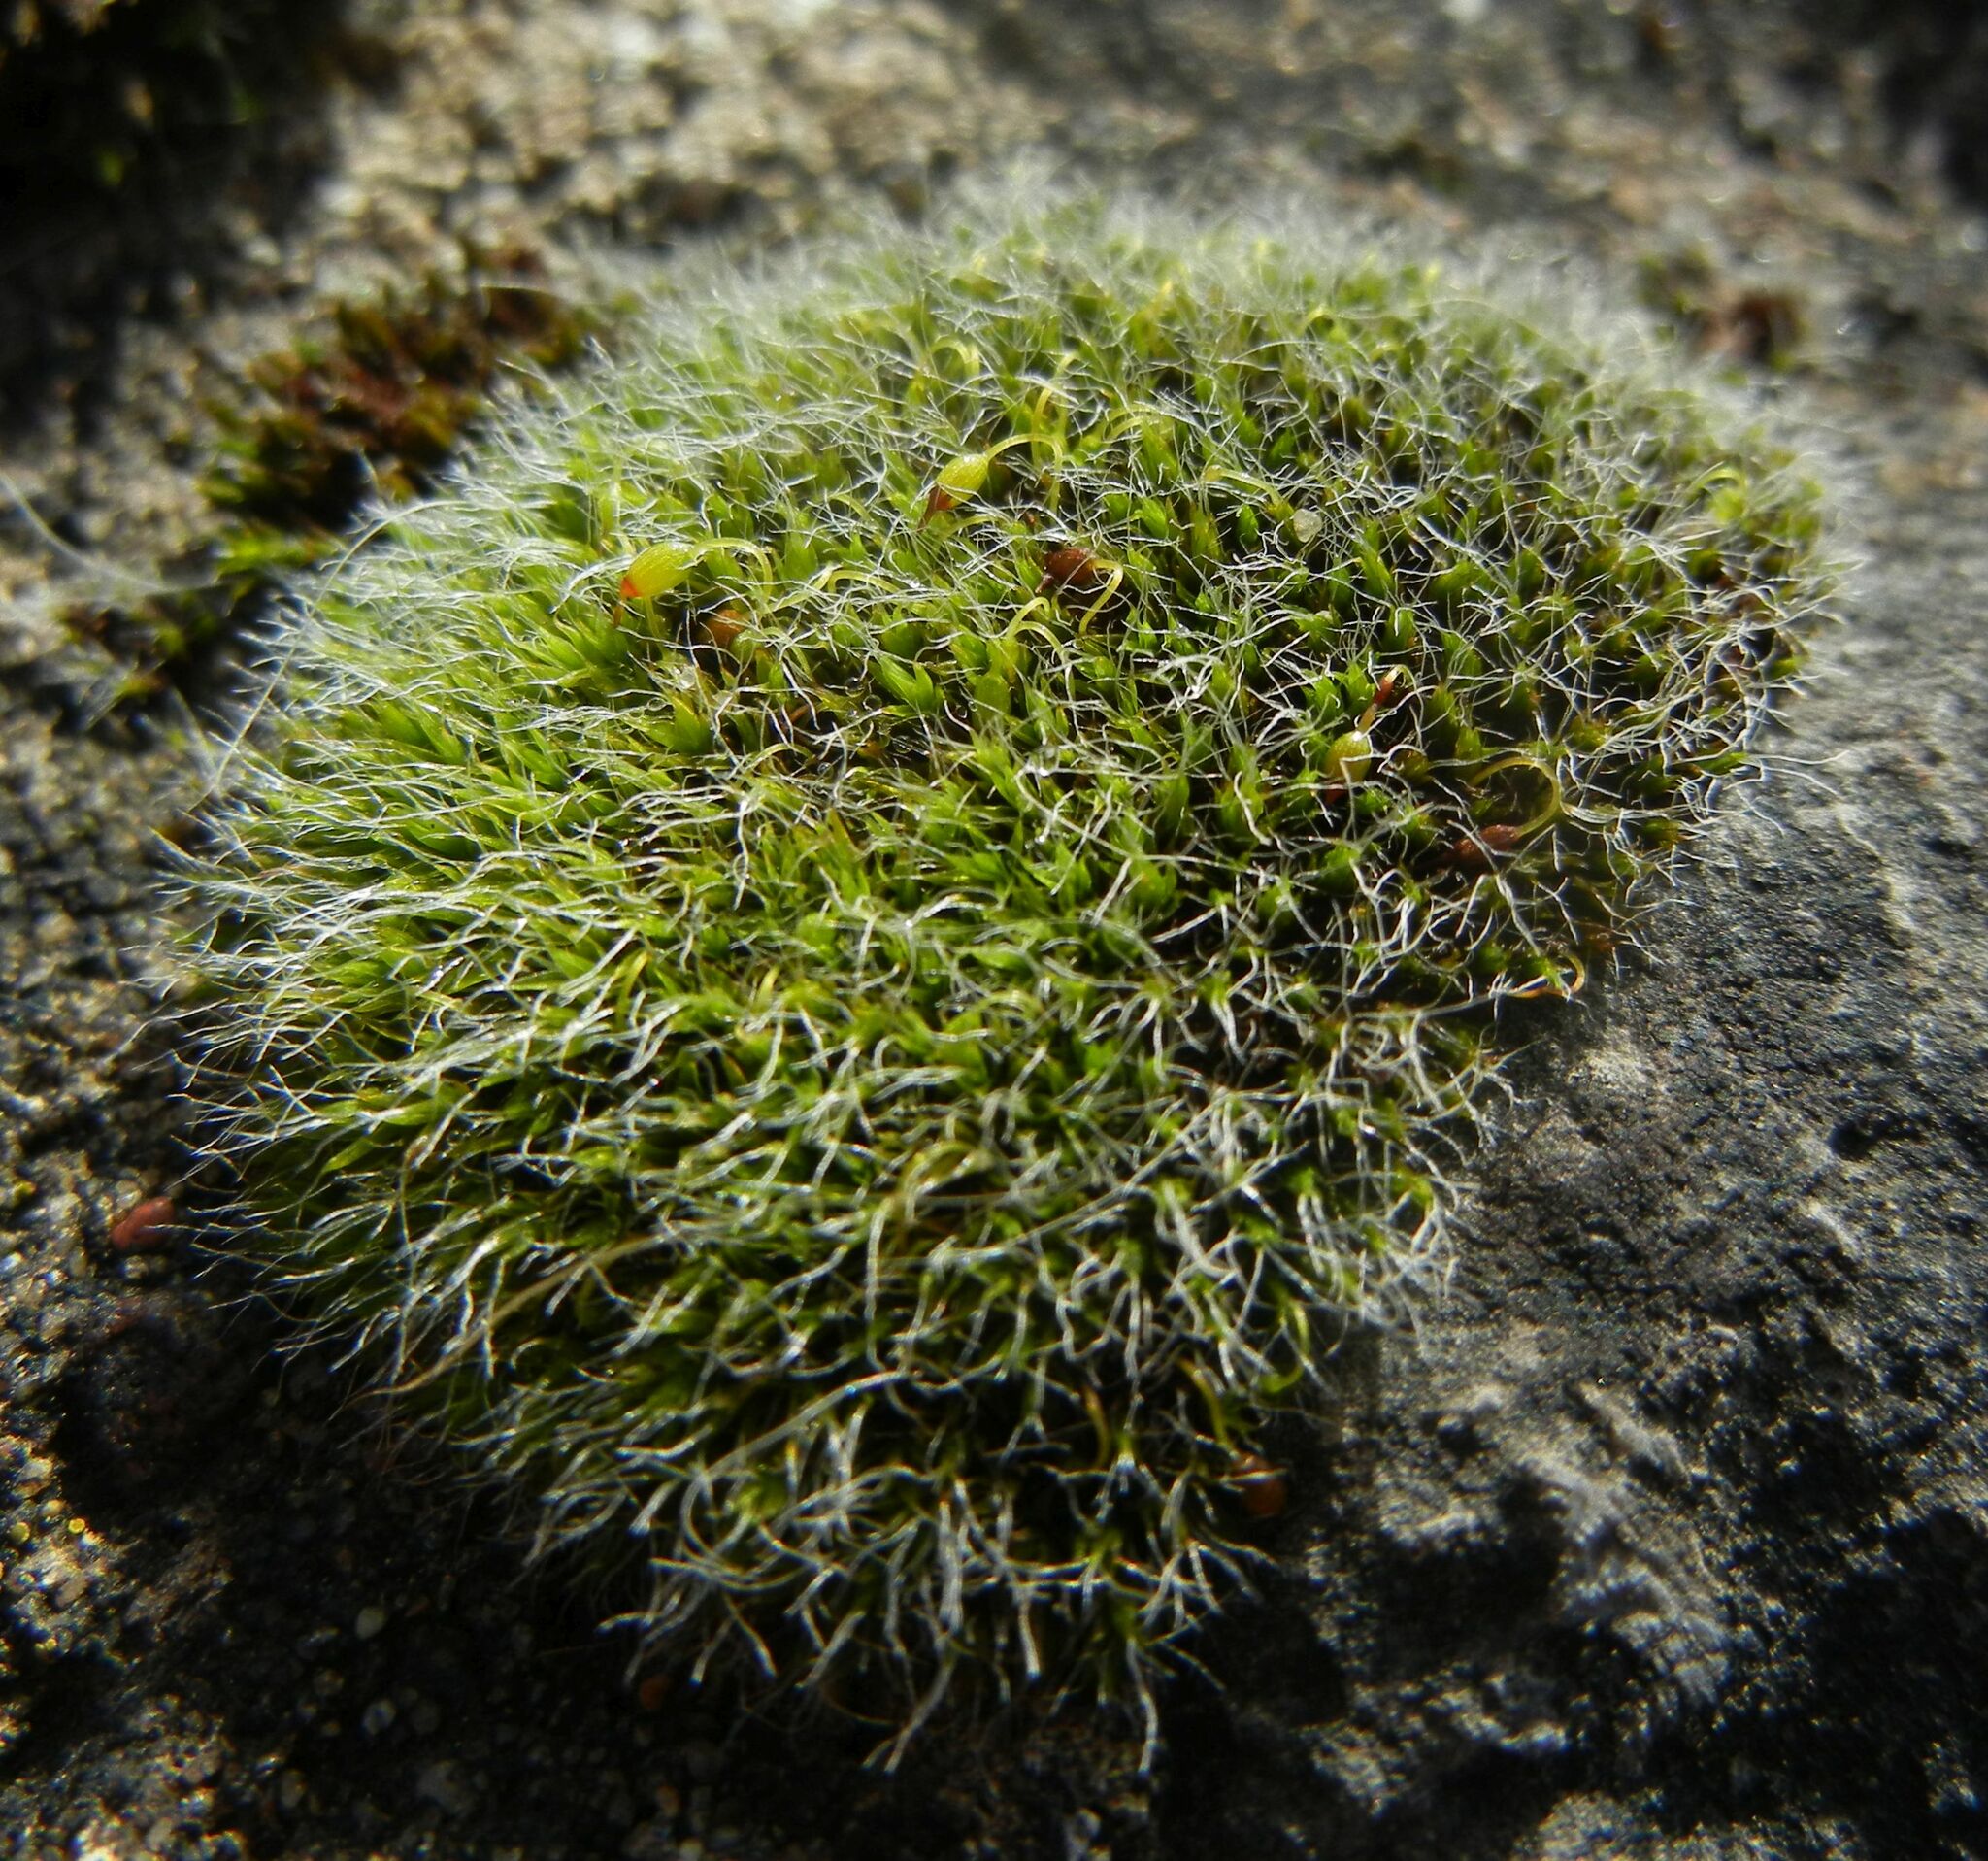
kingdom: Plantae
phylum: Bryophyta
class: Bryopsida
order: Grimmiales
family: Grimmiaceae
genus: Grimmia
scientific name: Grimmia pulvinata
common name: Grey-cushioned grimmia
